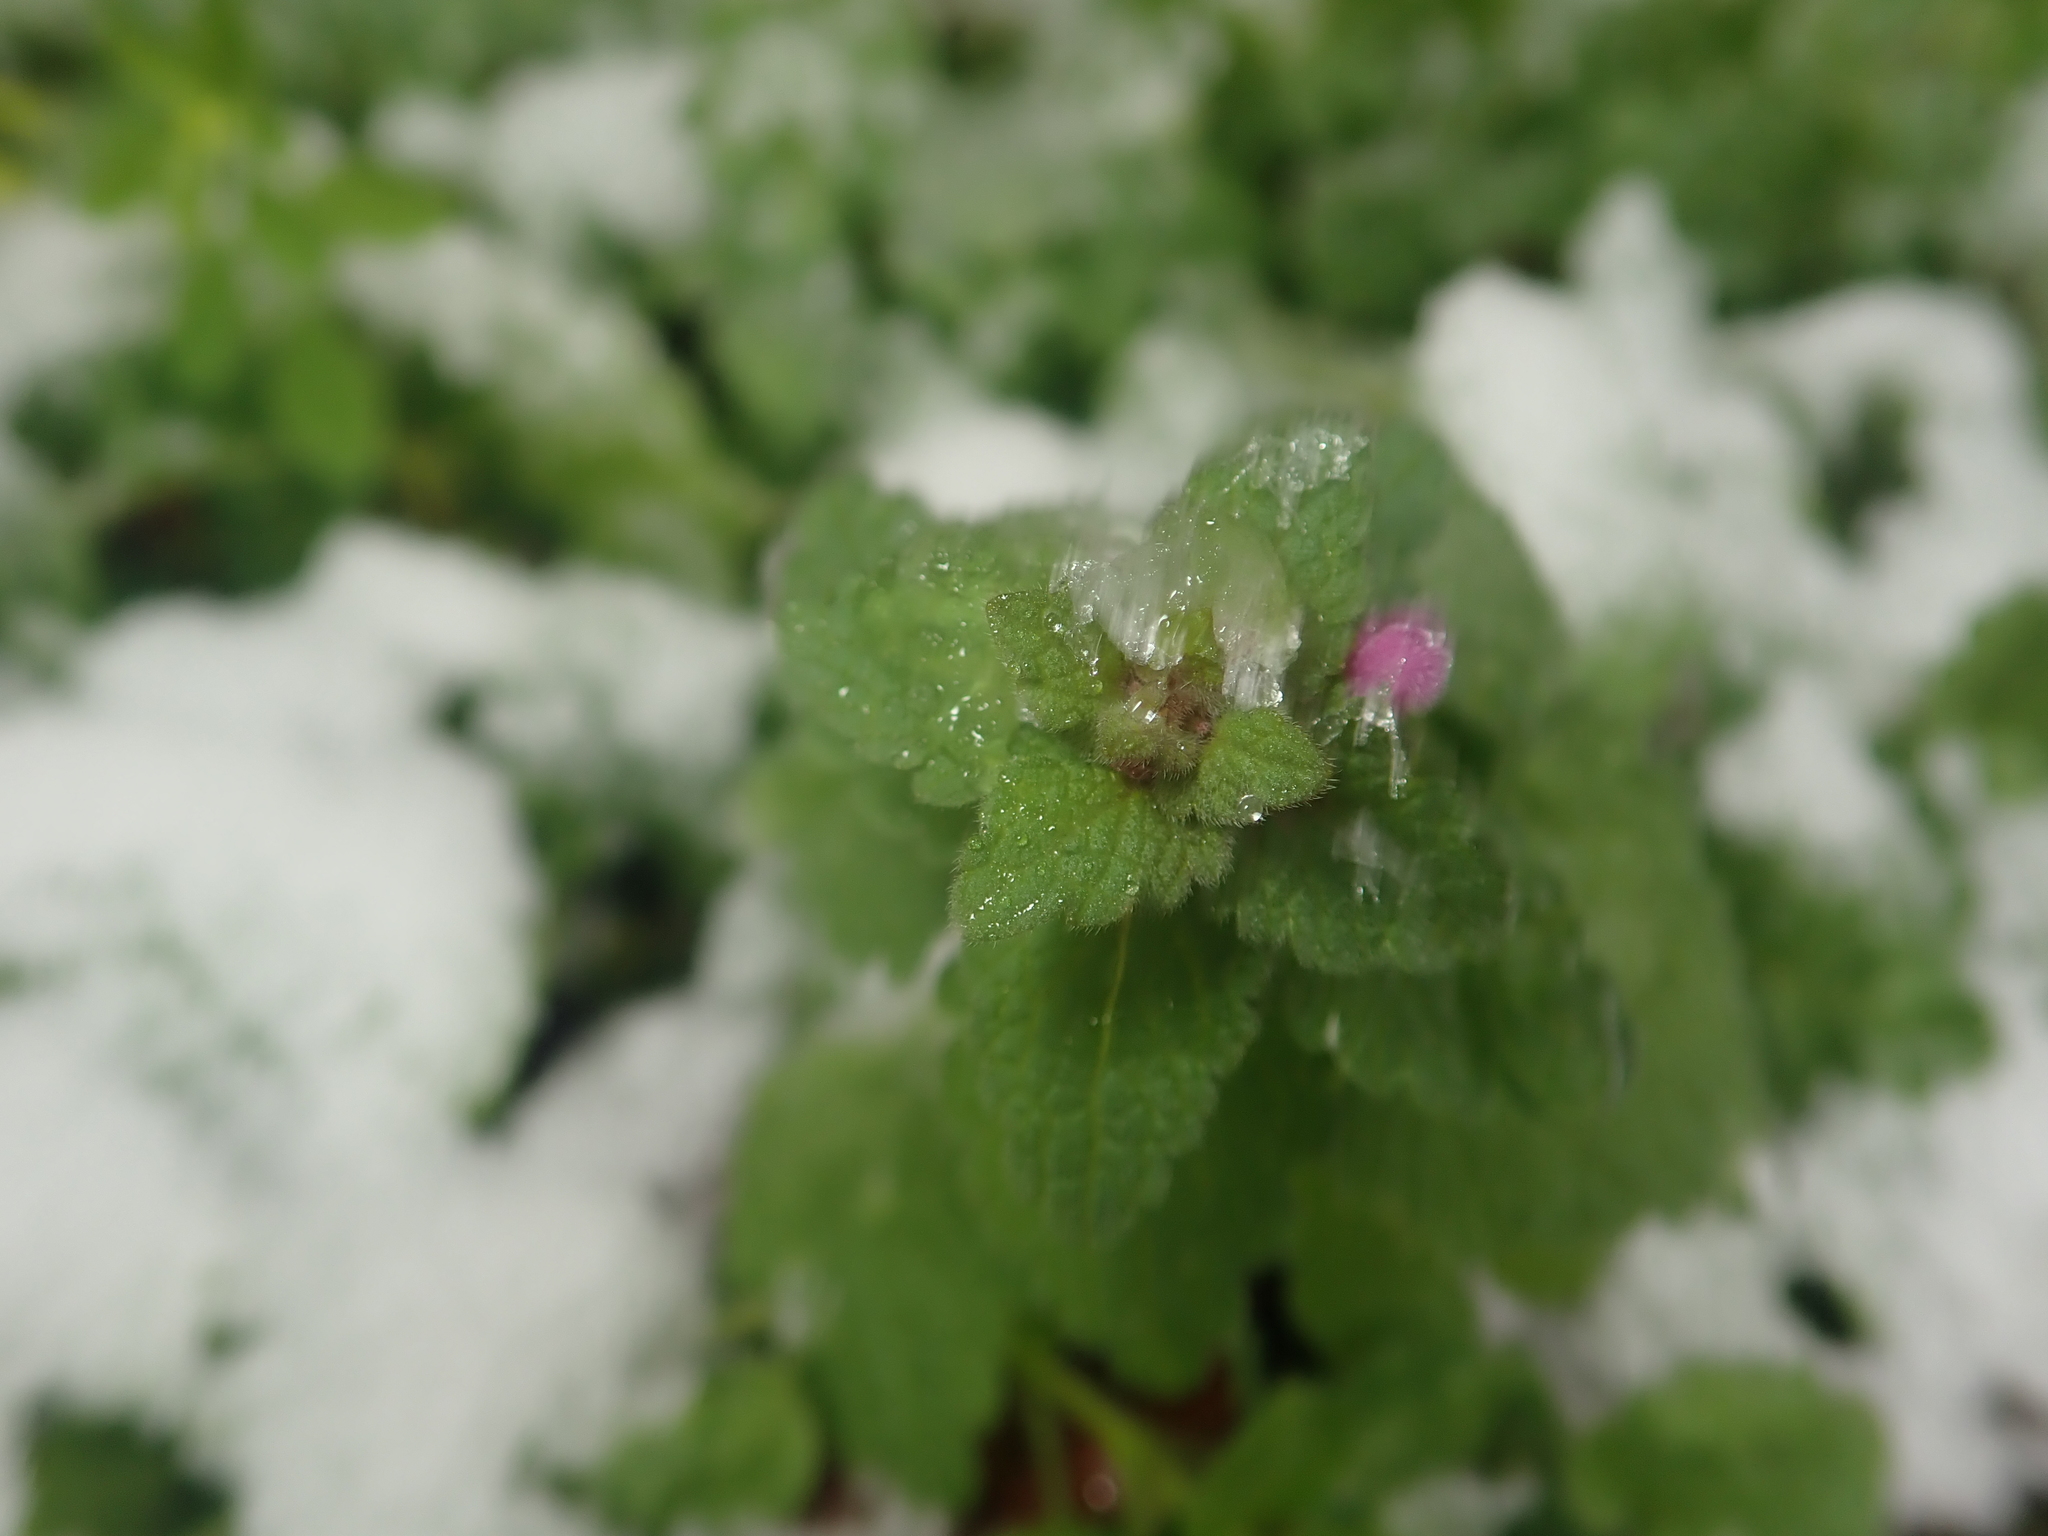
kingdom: Plantae
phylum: Tracheophyta
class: Magnoliopsida
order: Lamiales
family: Lamiaceae
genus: Lamium
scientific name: Lamium purpureum
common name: Red dead-nettle
